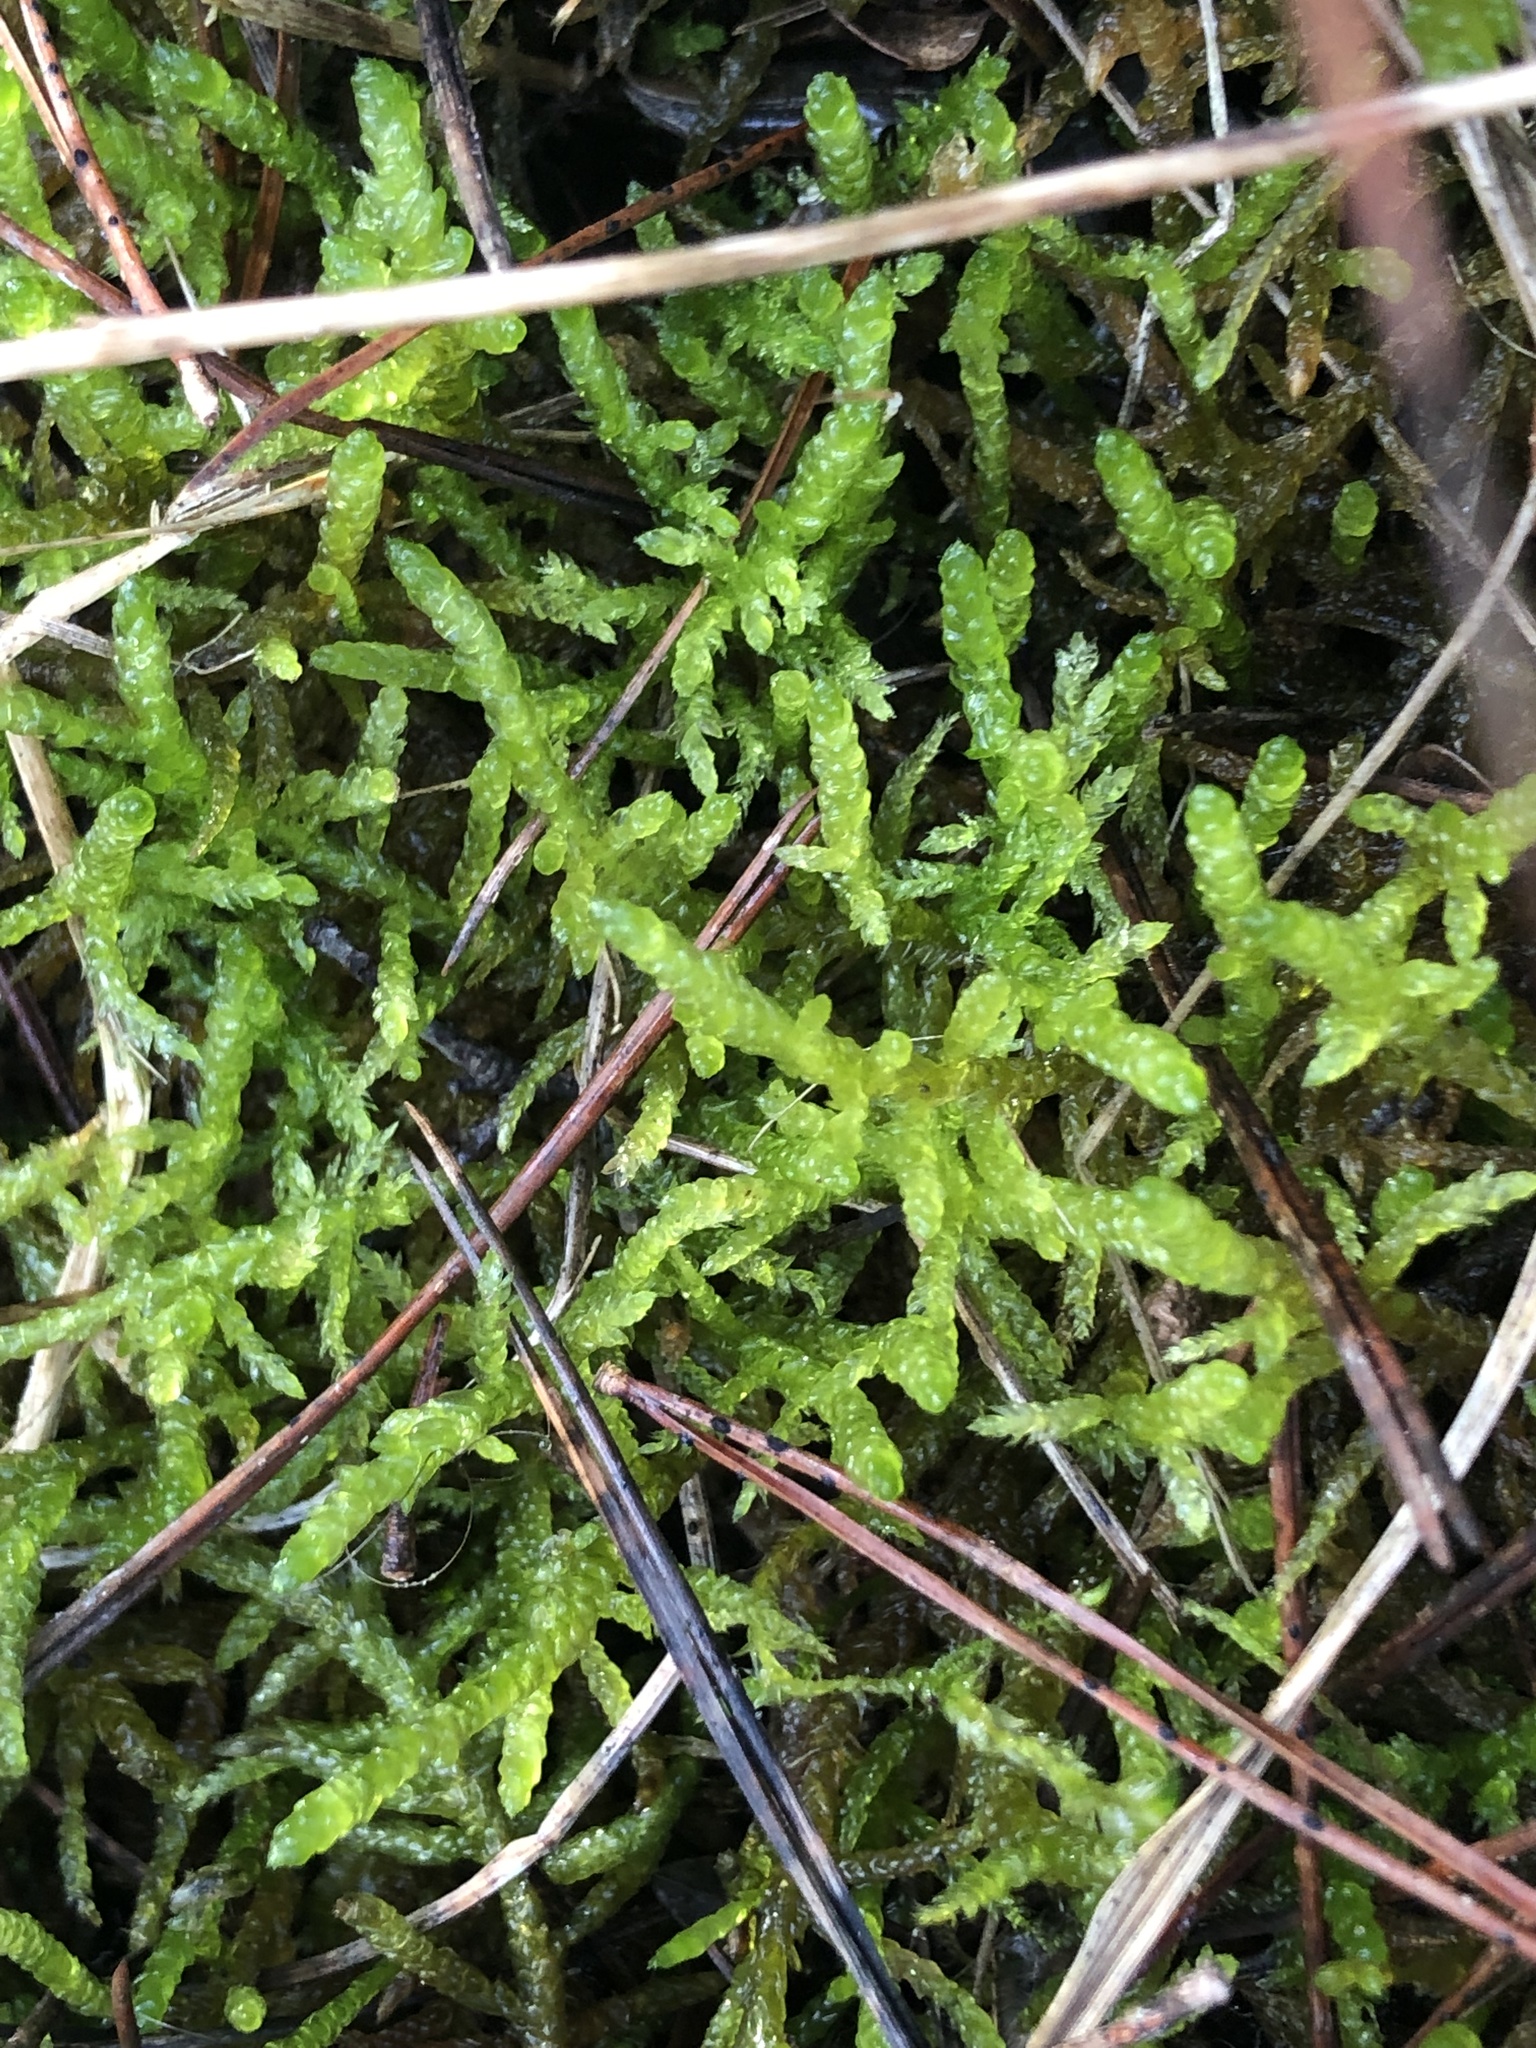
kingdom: Plantae
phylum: Bryophyta
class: Bryopsida
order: Hypnales
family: Brachytheciaceae
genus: Pseudoscleropodium
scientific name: Pseudoscleropodium purum
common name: Neat feather-moss
